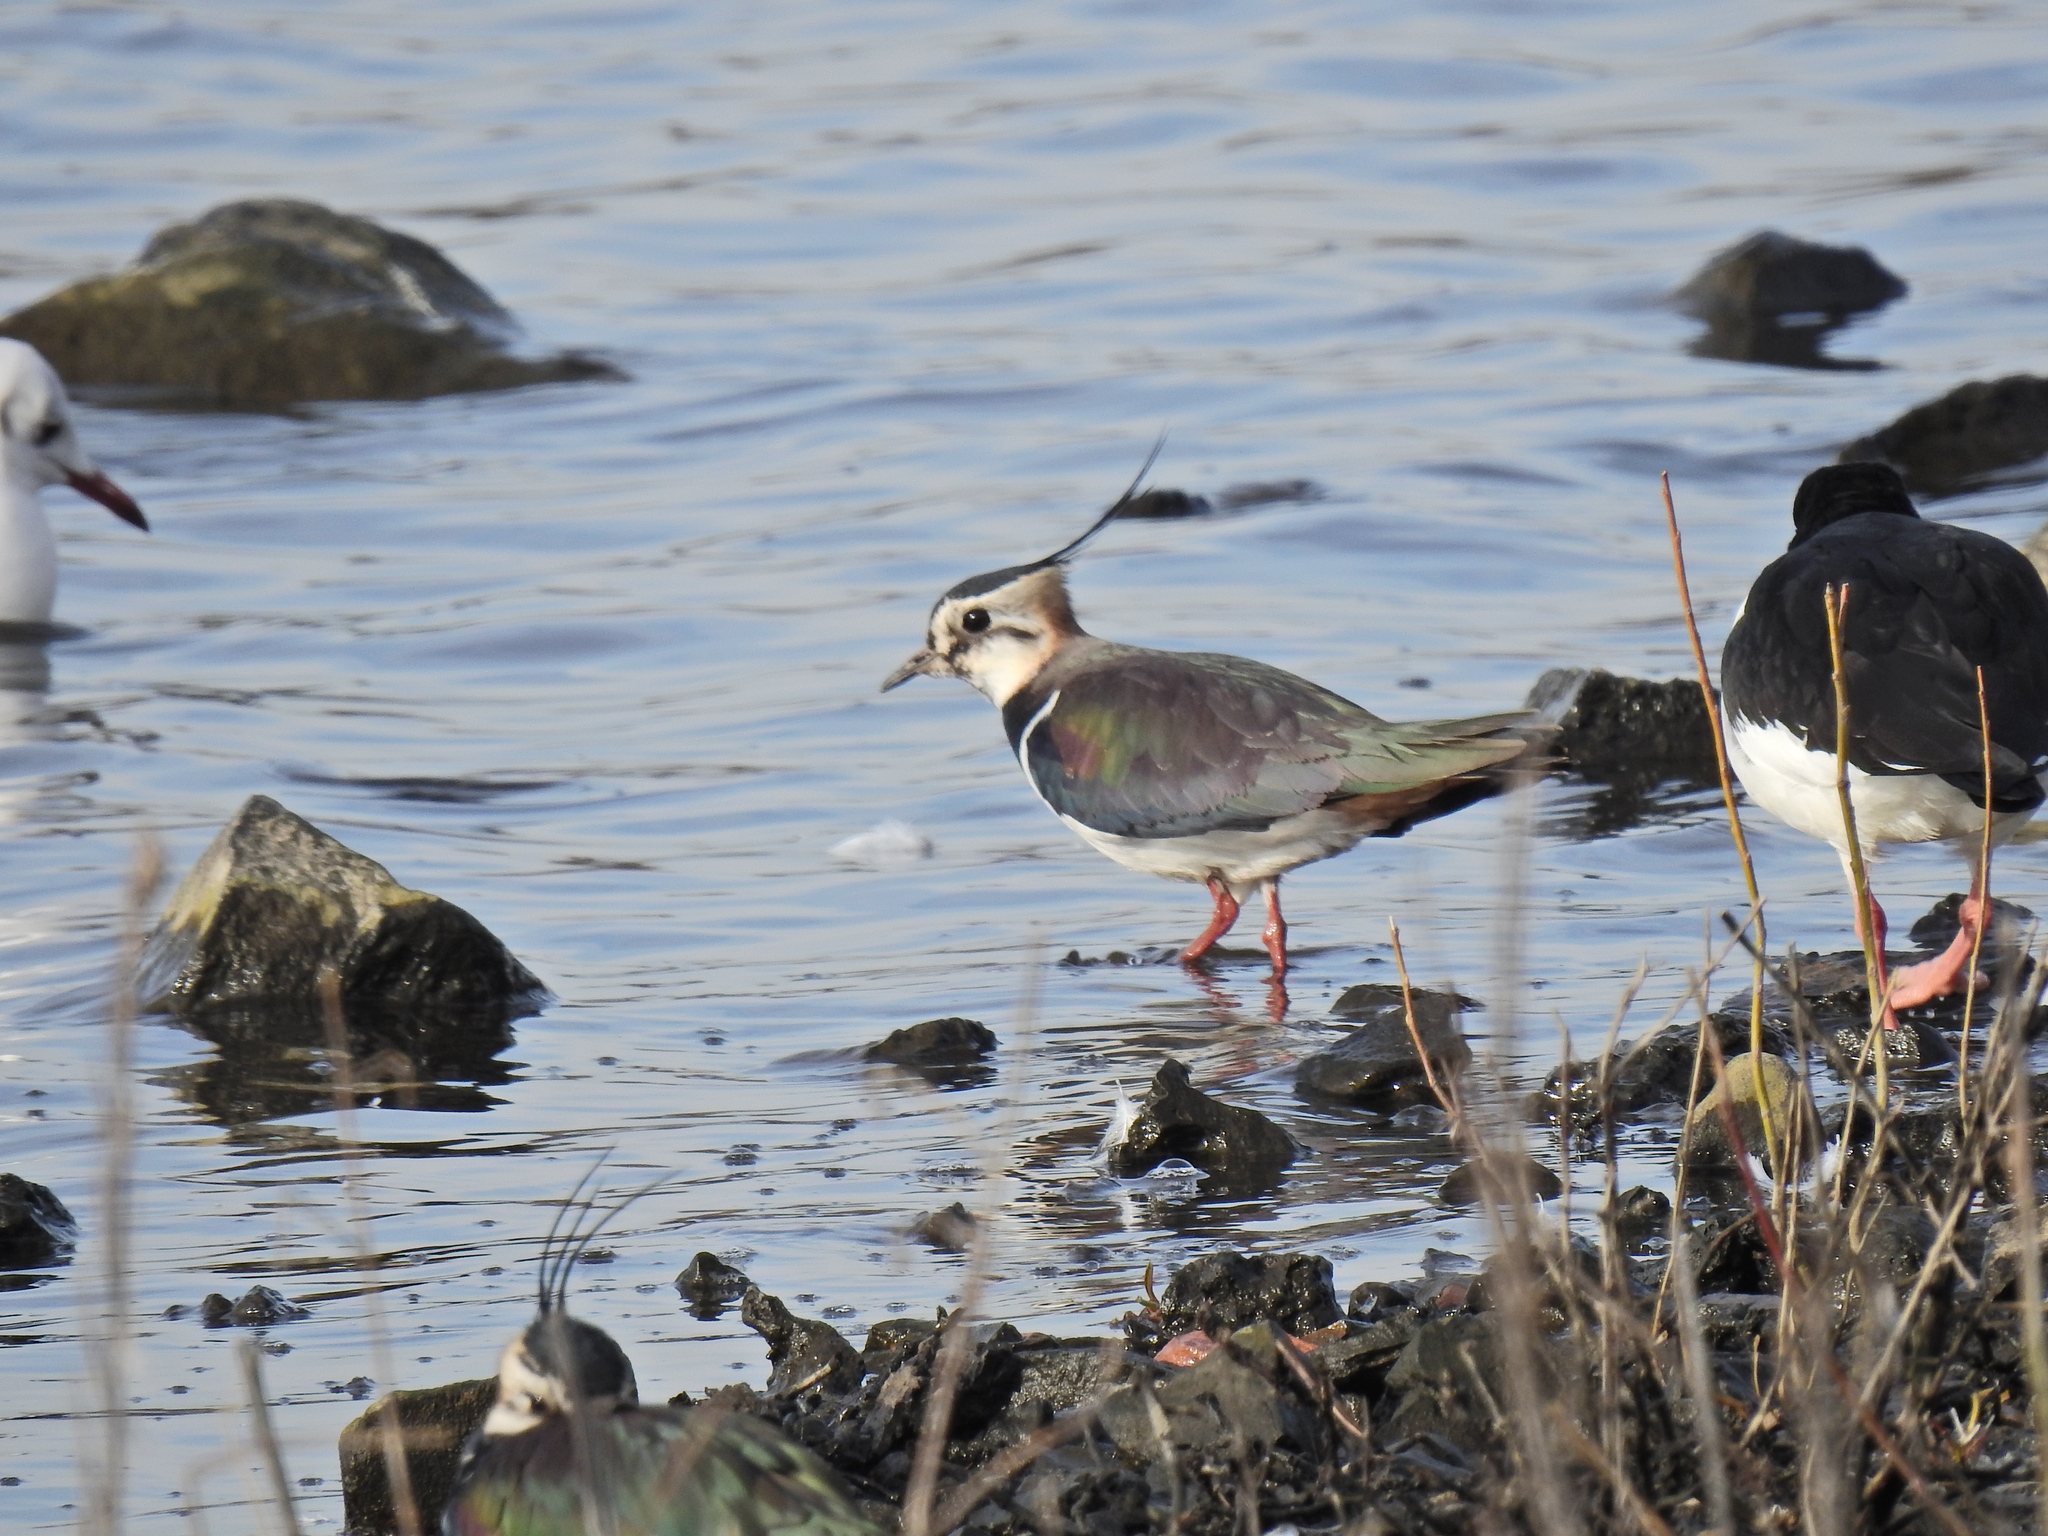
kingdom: Animalia
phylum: Chordata
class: Aves
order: Charadriiformes
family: Charadriidae
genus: Vanellus
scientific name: Vanellus vanellus
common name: Northern lapwing
